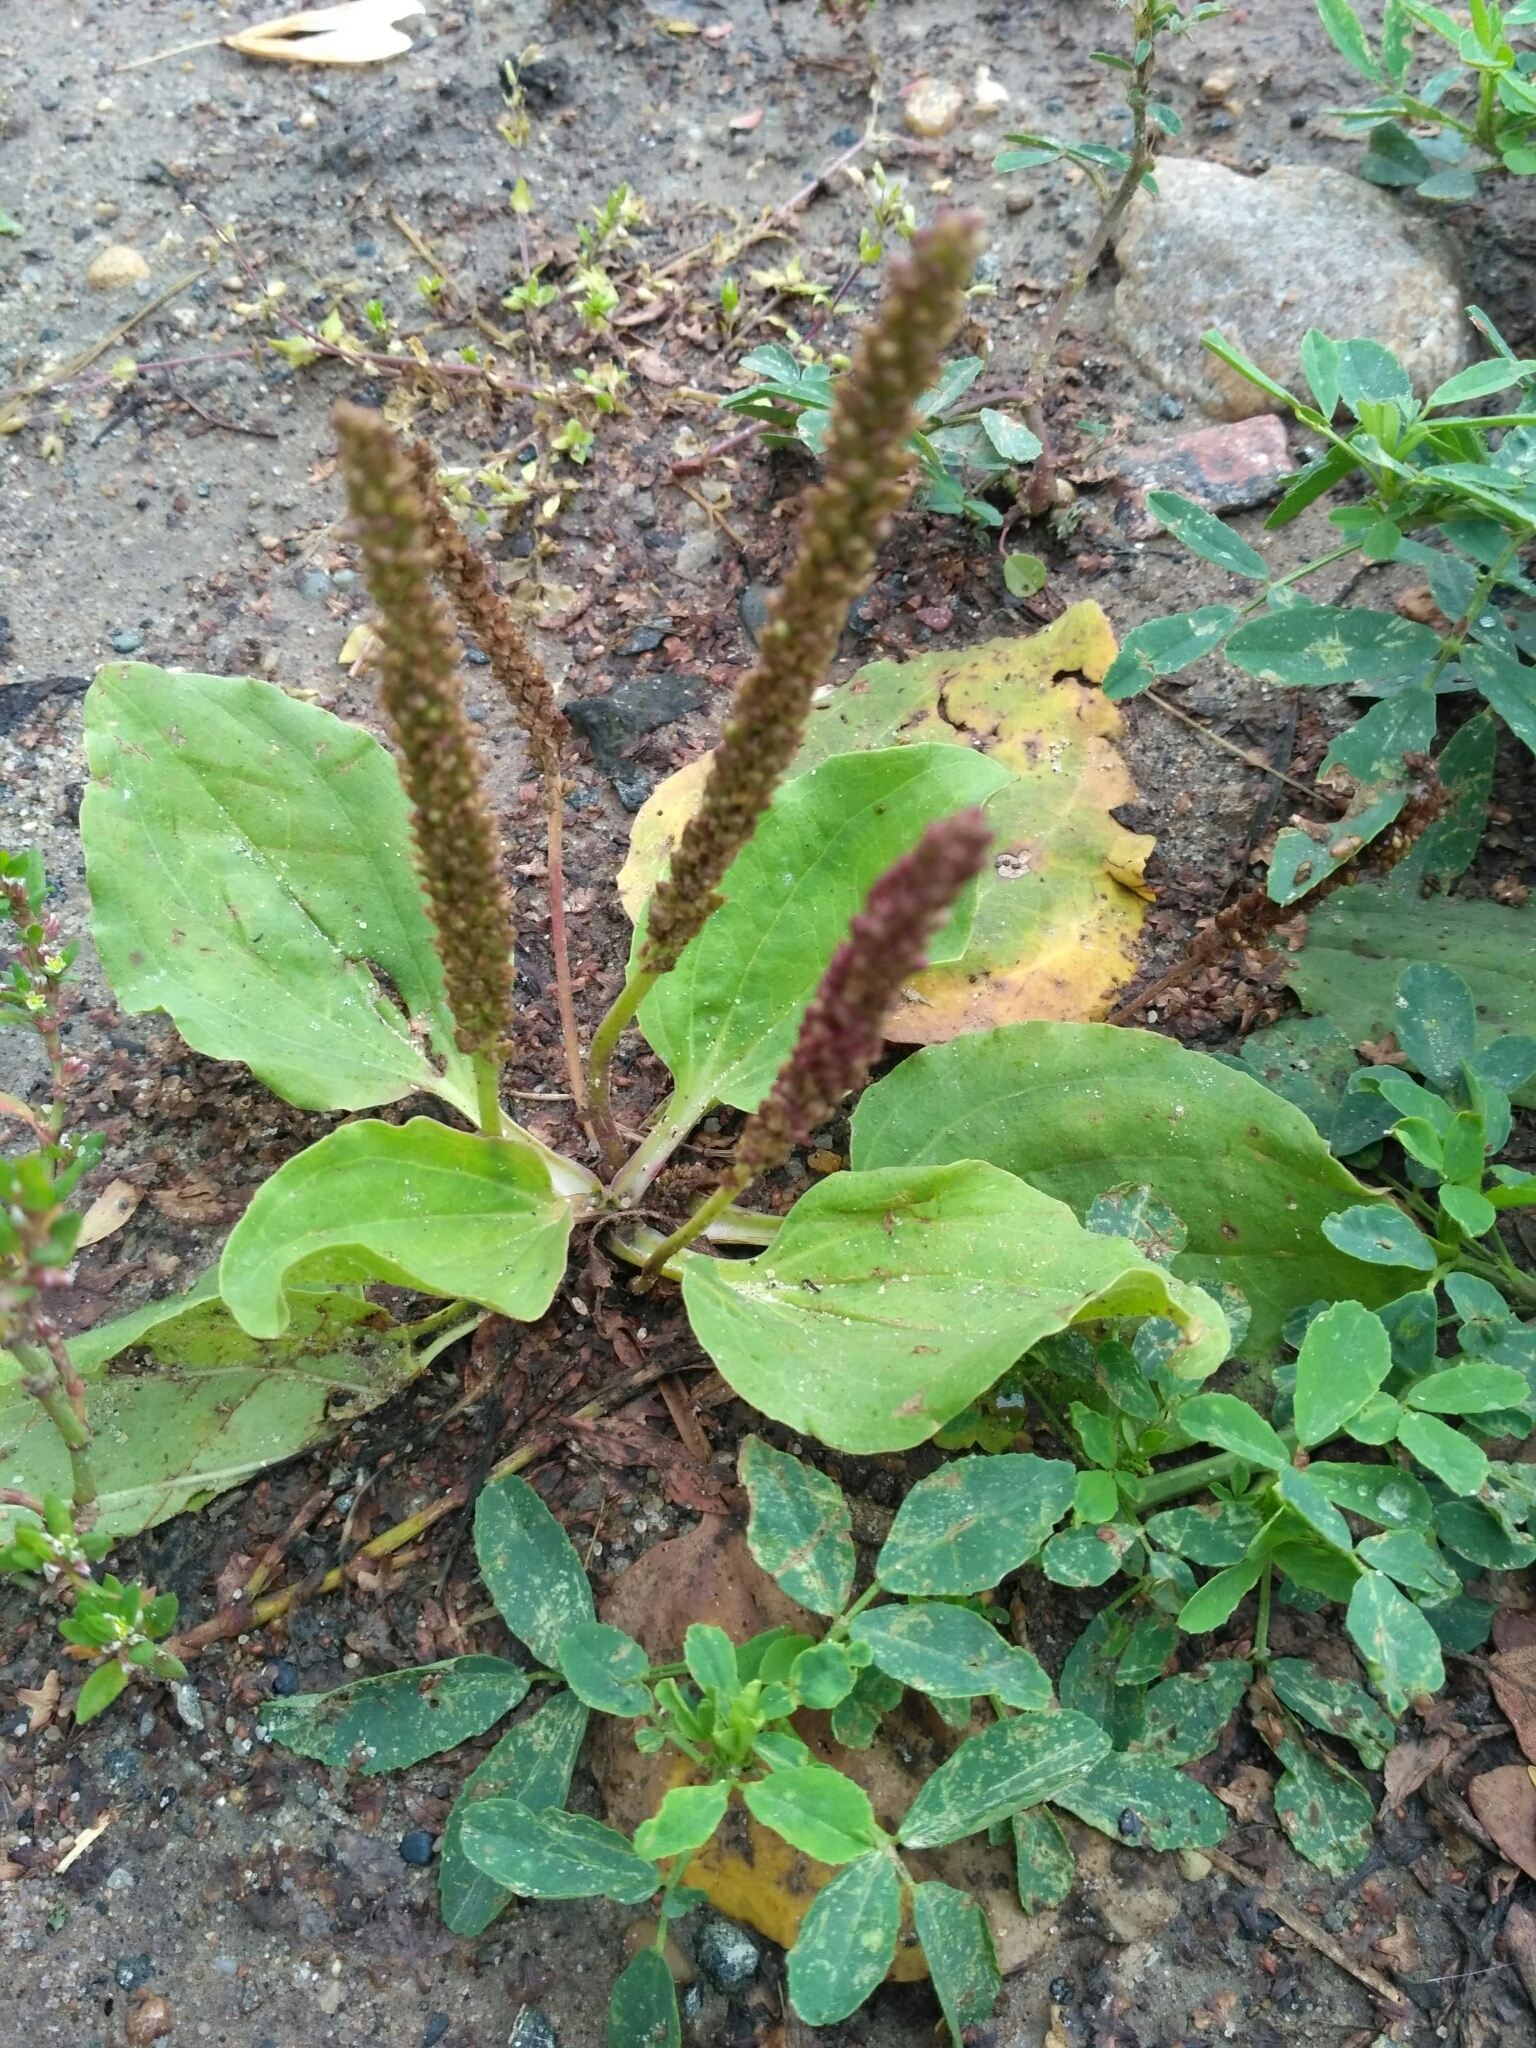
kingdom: Plantae
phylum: Tracheophyta
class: Magnoliopsida
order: Lamiales
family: Plantaginaceae
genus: Plantago
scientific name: Plantago major
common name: Common plantain
